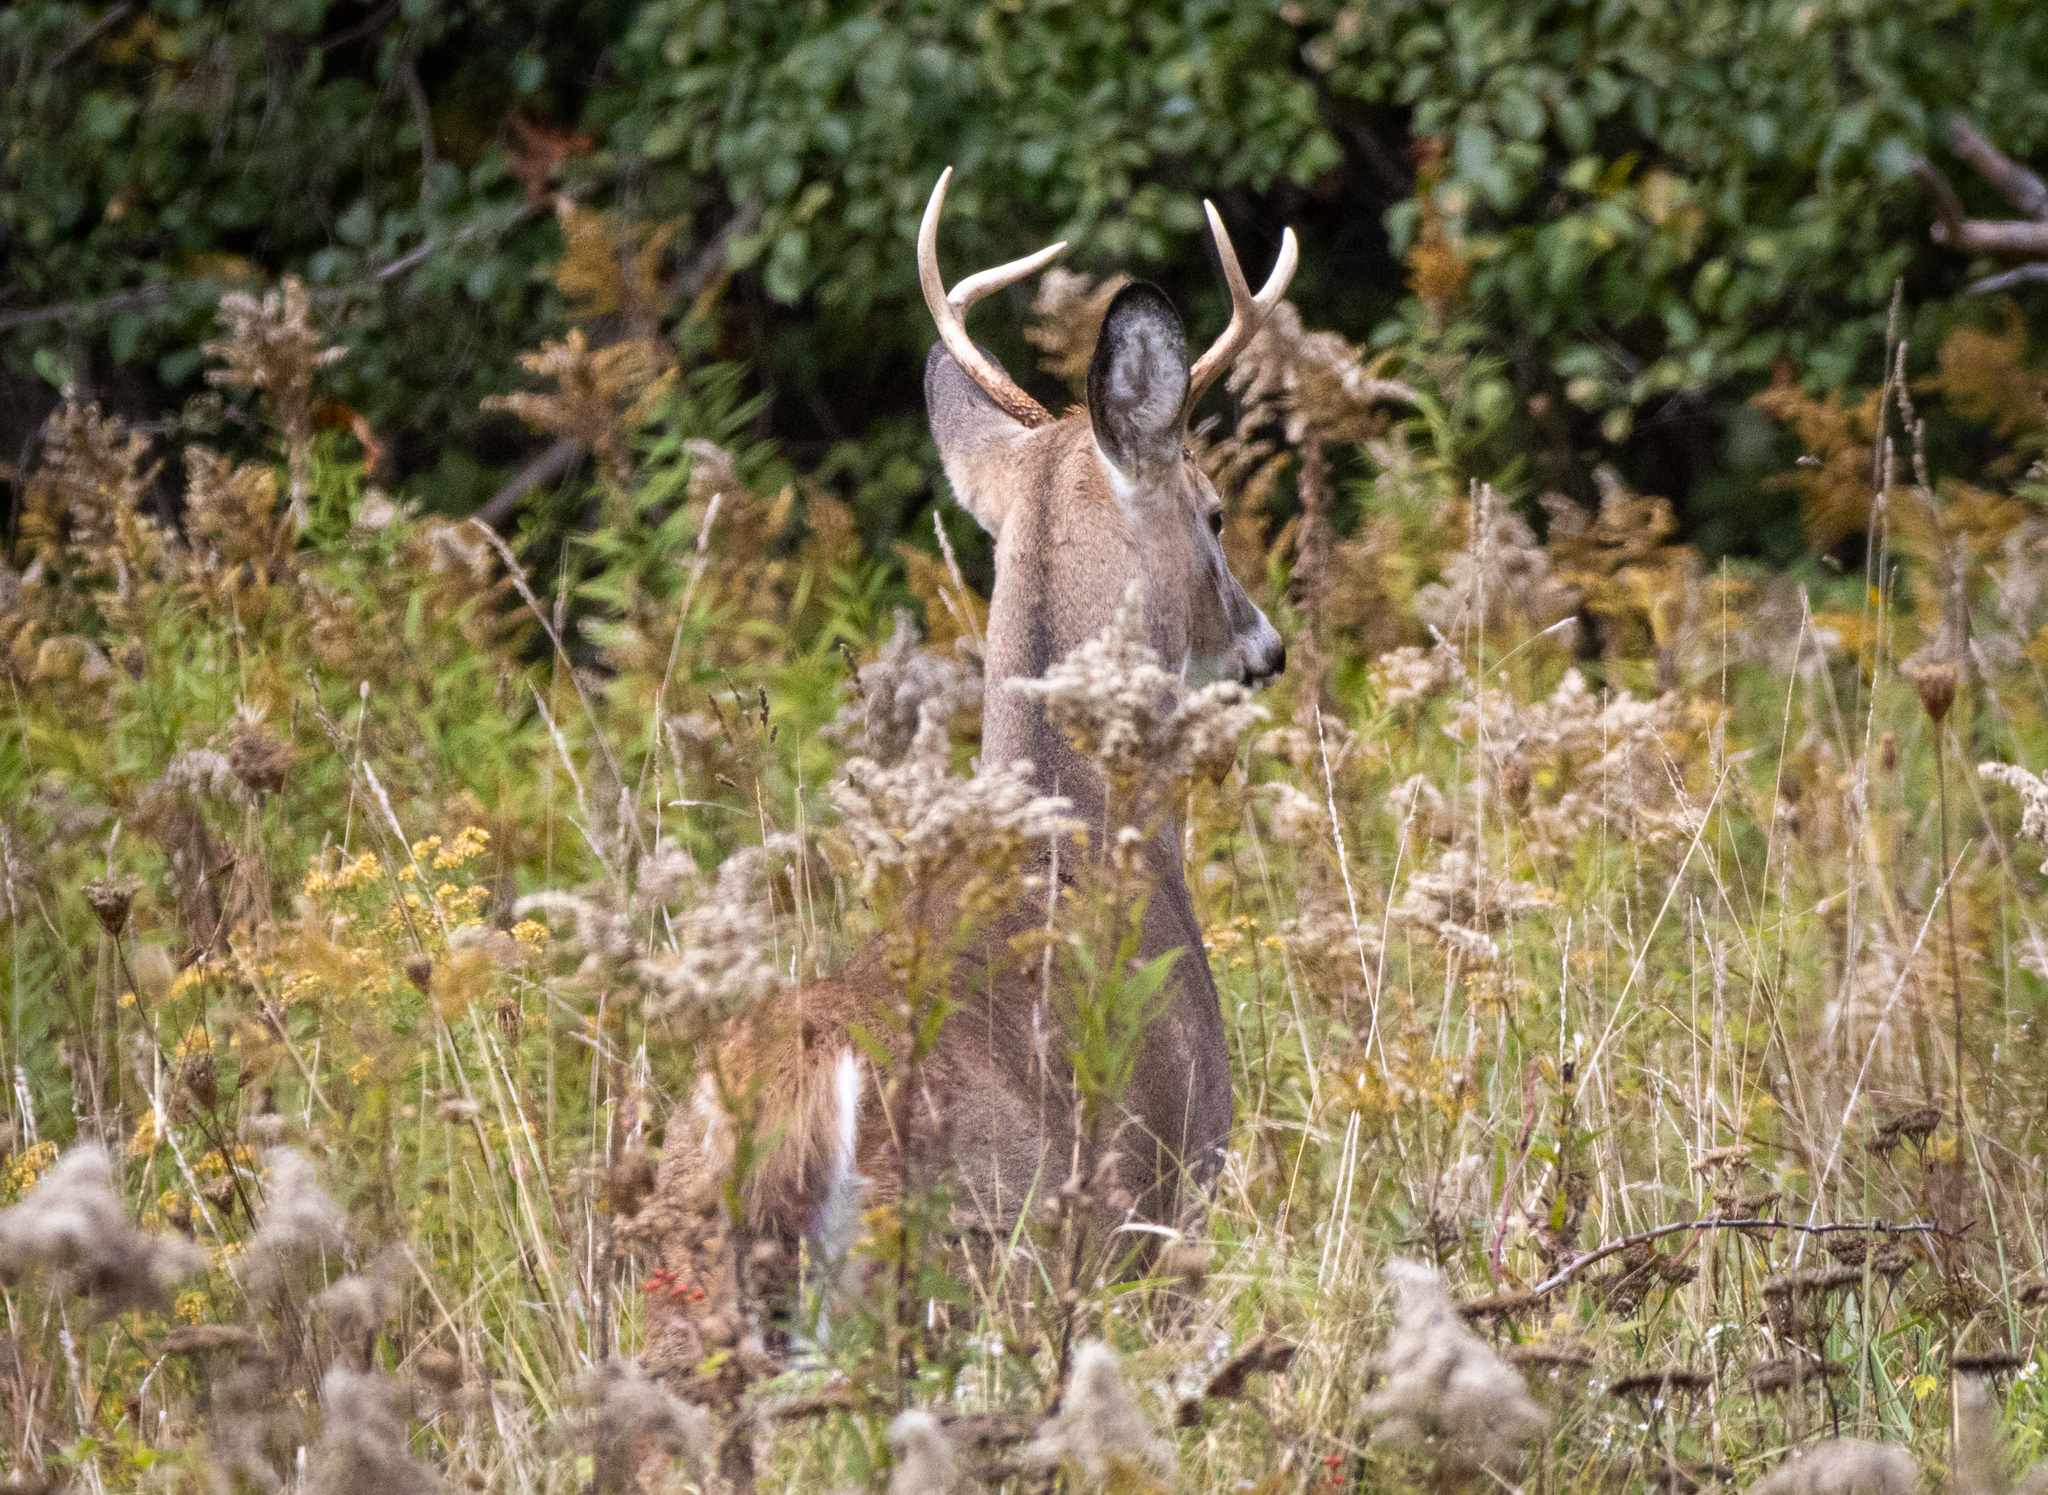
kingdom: Animalia
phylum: Chordata
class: Mammalia
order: Artiodactyla
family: Cervidae
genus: Odocoileus
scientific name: Odocoileus virginianus
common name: White-tailed deer
